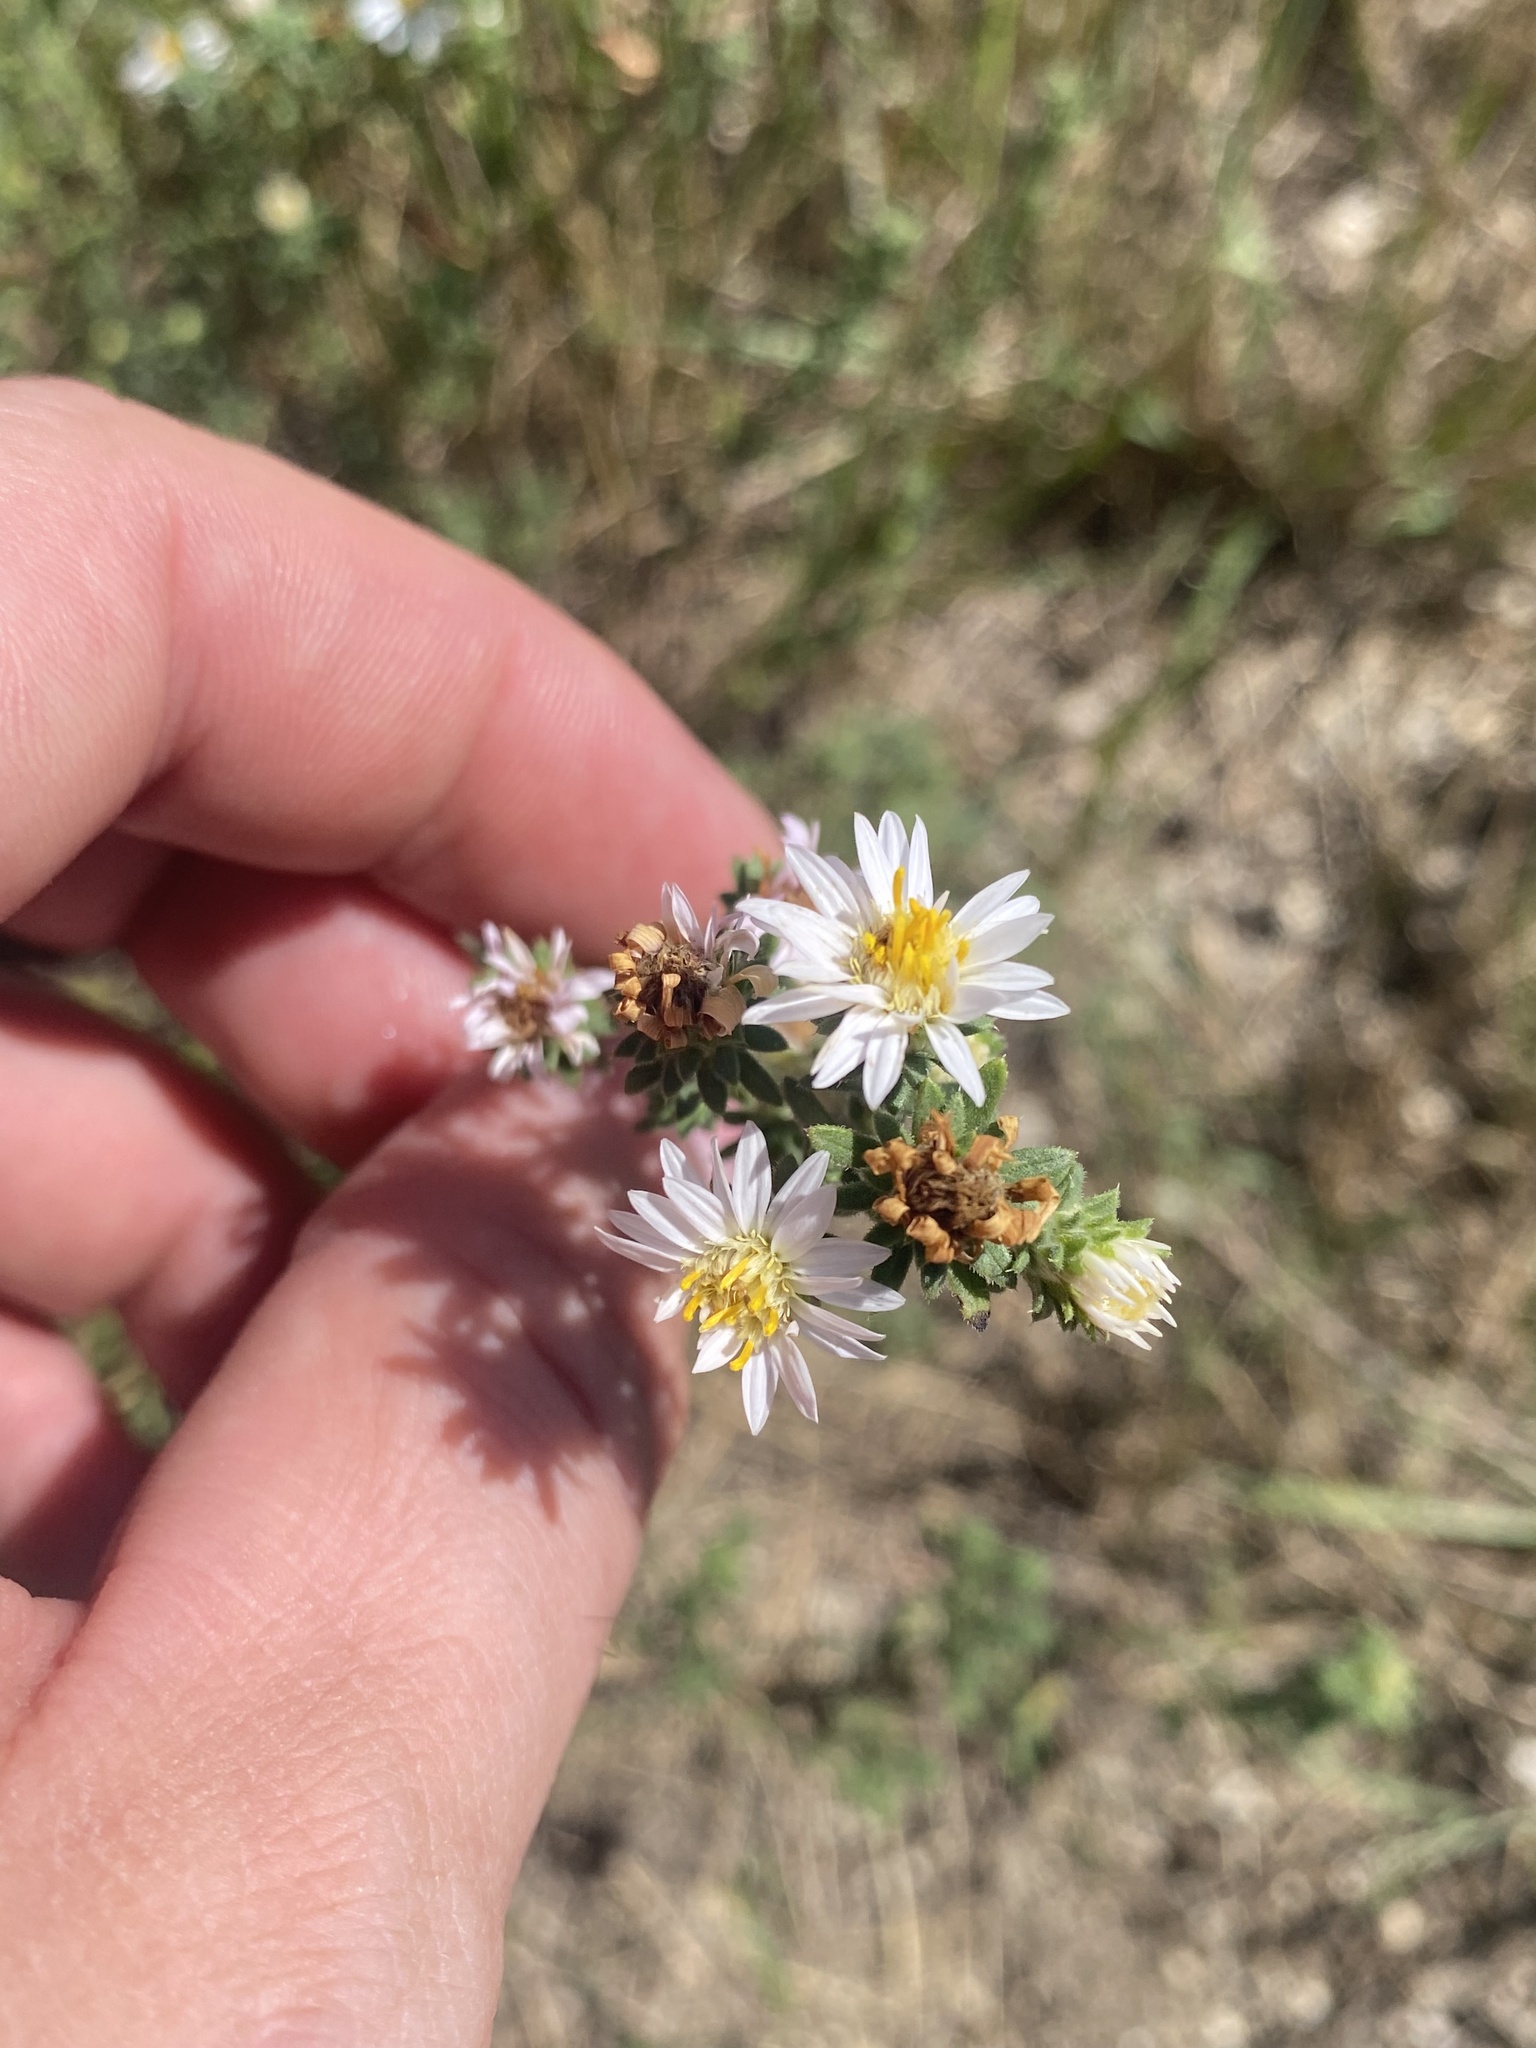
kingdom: Plantae
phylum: Tracheophyta
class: Magnoliopsida
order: Asterales
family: Asteraceae
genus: Symphyotrichum
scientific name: Symphyotrichum falcatum
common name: Creeping white prairie aster
